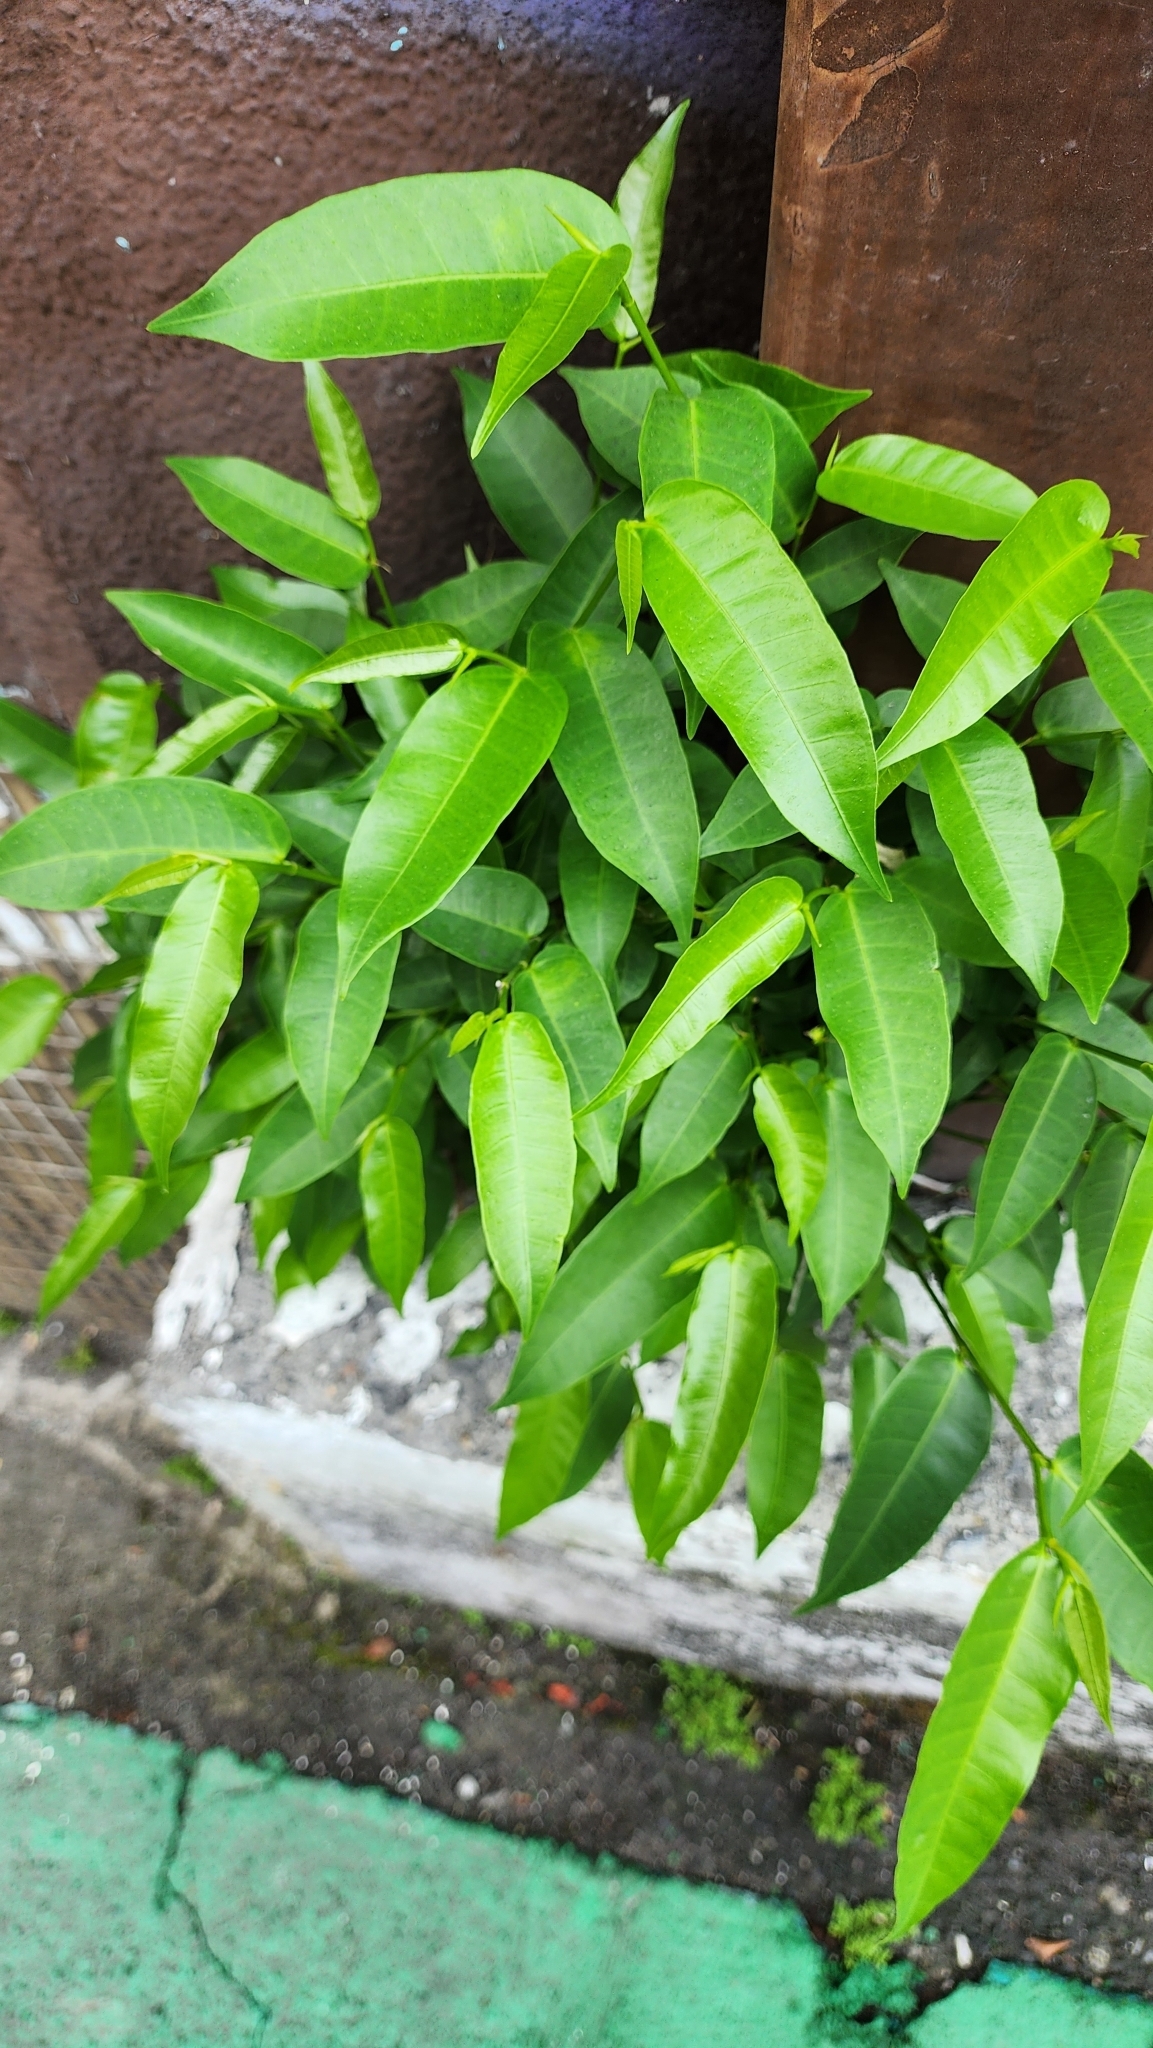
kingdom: Plantae
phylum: Tracheophyta
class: Magnoliopsida
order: Rosales
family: Moraceae
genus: Ficus
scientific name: Ficus virgata
